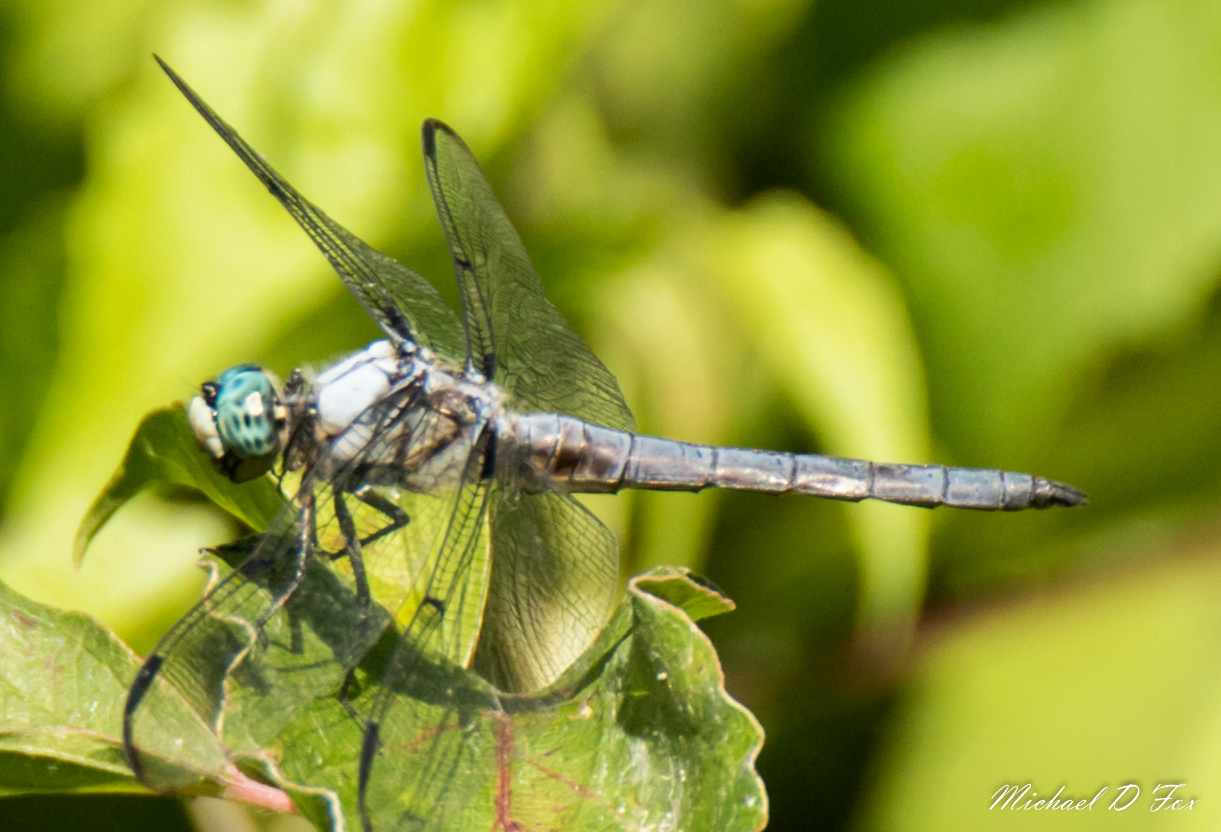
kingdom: Animalia
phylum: Arthropoda
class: Insecta
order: Odonata
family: Libellulidae
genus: Libellula
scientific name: Libellula vibrans
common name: Great blue skimmer
